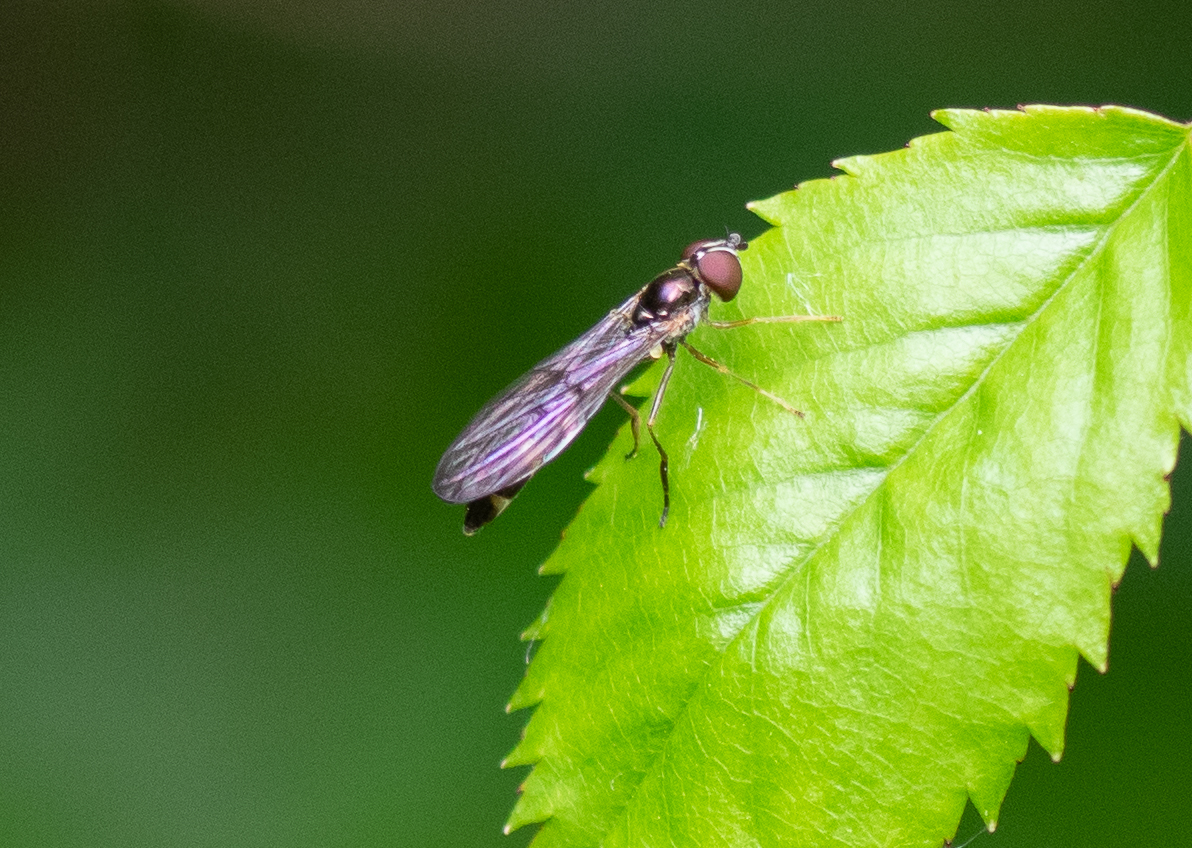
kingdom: Animalia
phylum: Arthropoda
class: Insecta
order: Diptera
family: Syrphidae
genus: Baccha
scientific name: Baccha elongata
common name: Common dainty
